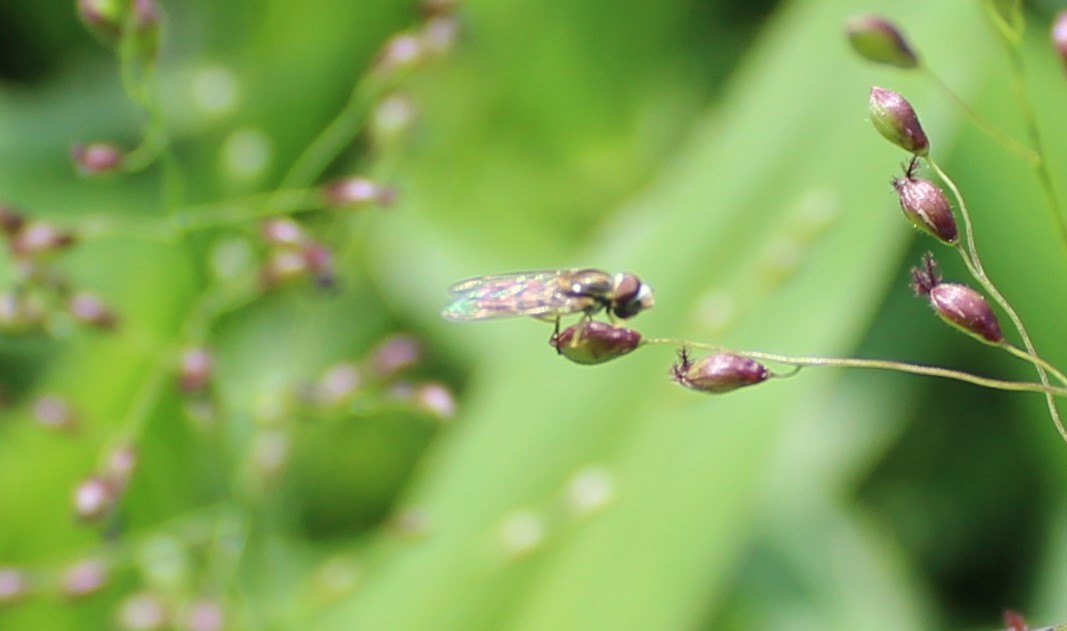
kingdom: Animalia
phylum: Arthropoda
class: Insecta
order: Diptera
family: Syrphidae
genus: Toxomerus
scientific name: Toxomerus
